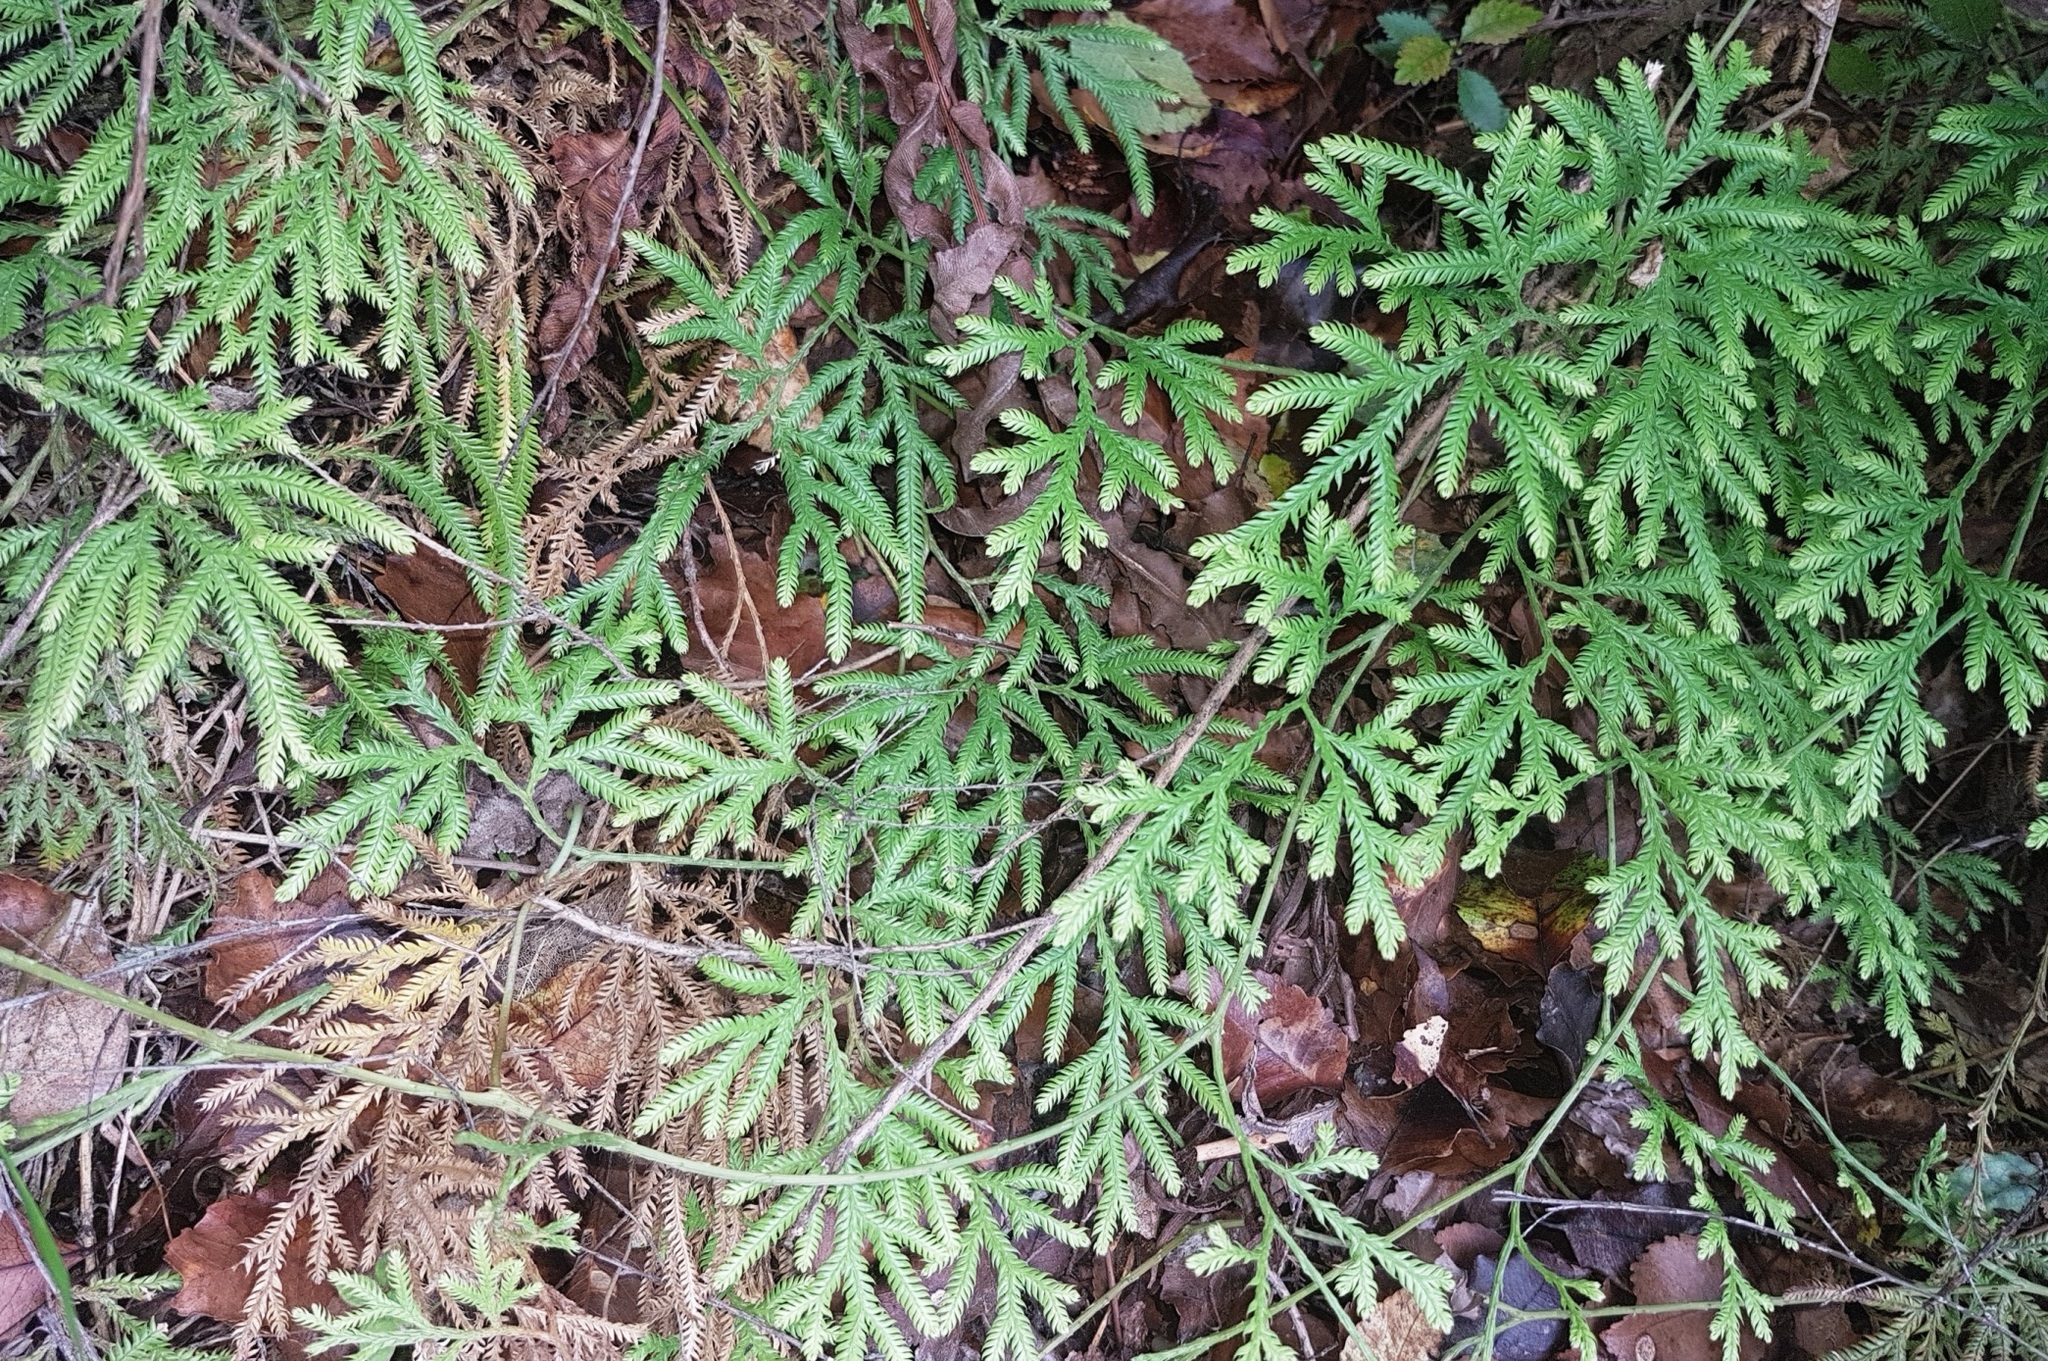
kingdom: Plantae
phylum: Tracheophyta
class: Lycopodiopsida
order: Lycopodiales
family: Lycopodiaceae
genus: Lycopodium
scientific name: Lycopodium volubile
